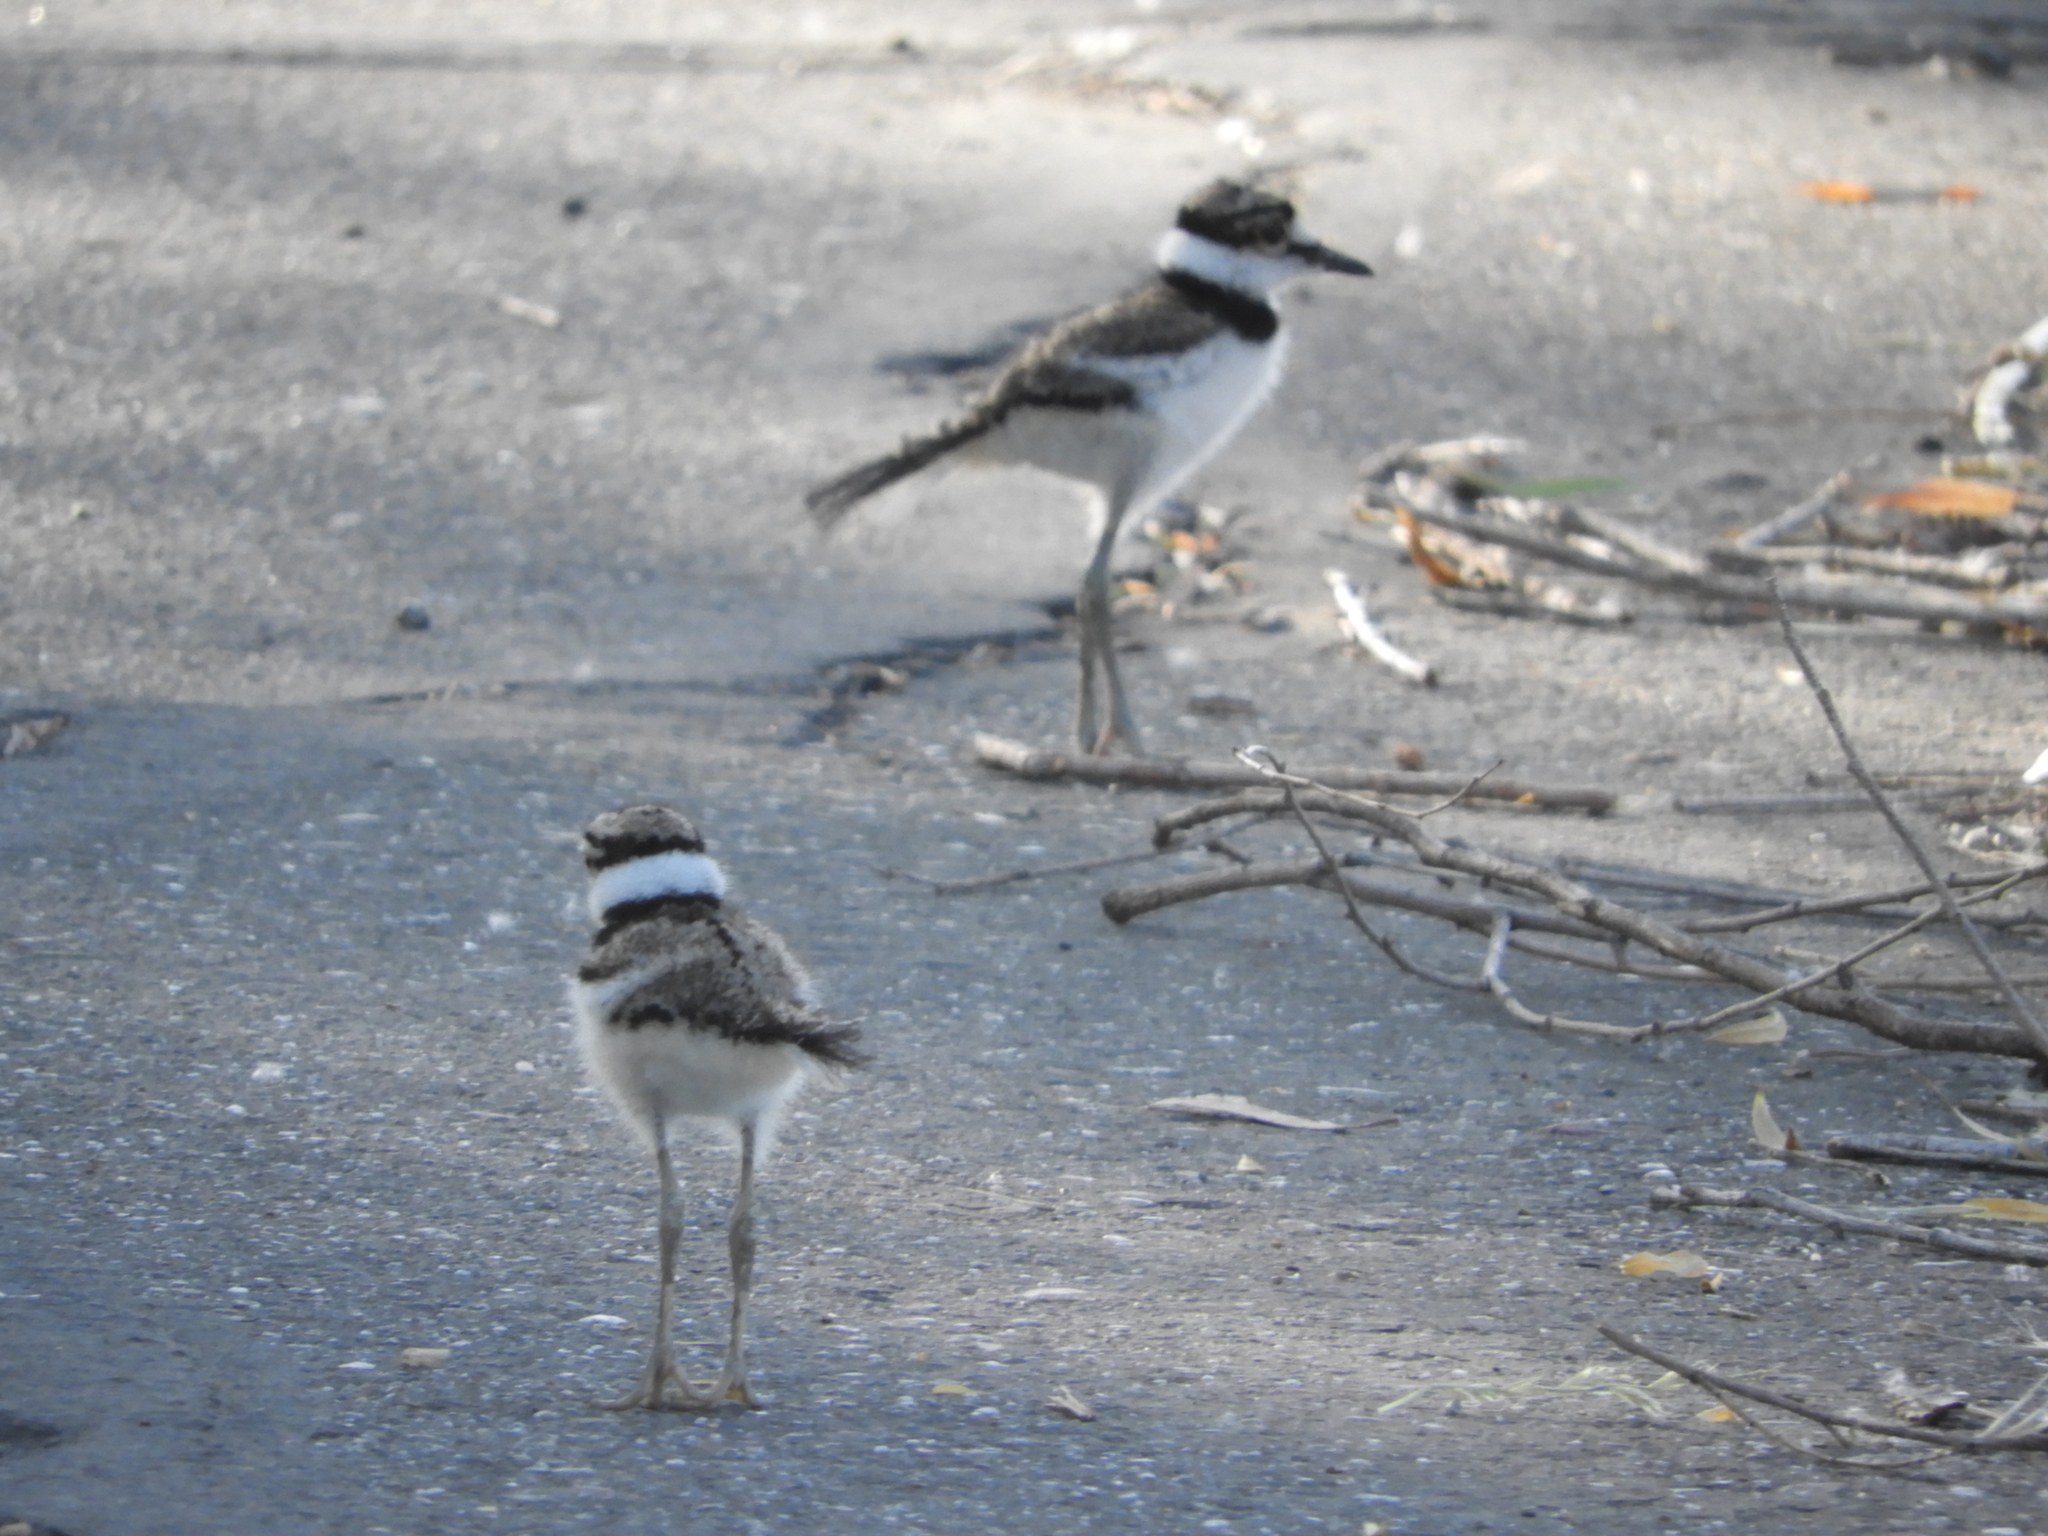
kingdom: Animalia
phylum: Chordata
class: Aves
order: Charadriiformes
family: Charadriidae
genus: Charadrius
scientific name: Charadrius vociferus
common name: Killdeer
